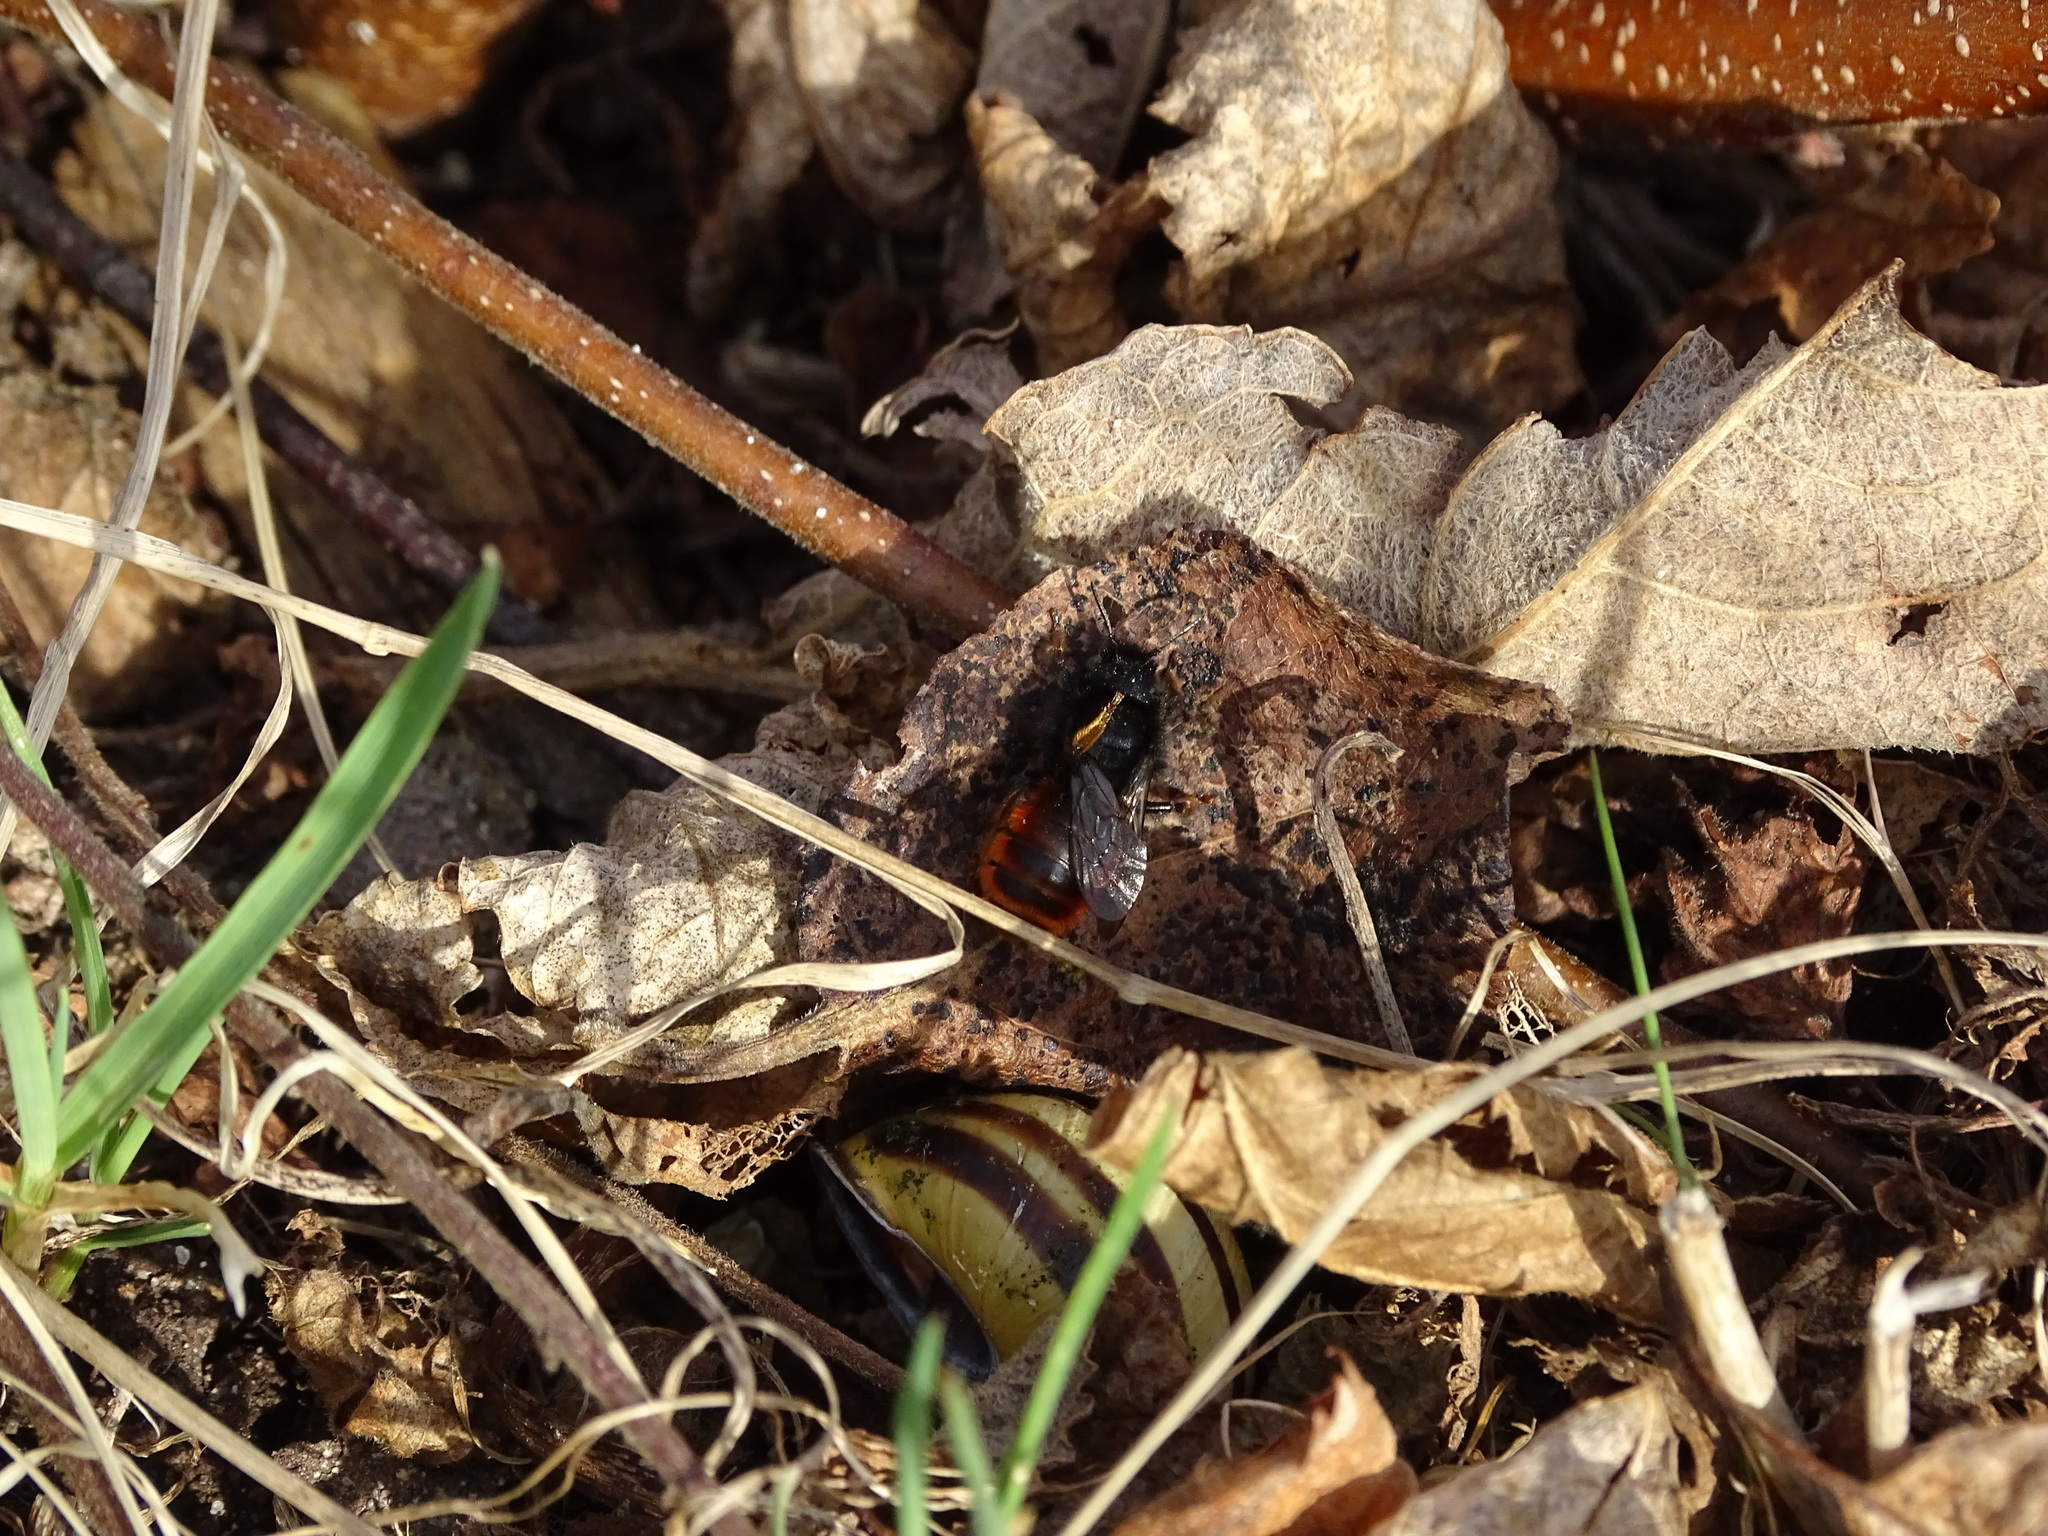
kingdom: Animalia
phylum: Arthropoda
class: Insecta
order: Hymenoptera
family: Megachilidae
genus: Osmia
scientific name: Osmia bicolor
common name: Red-tailed mason bee
